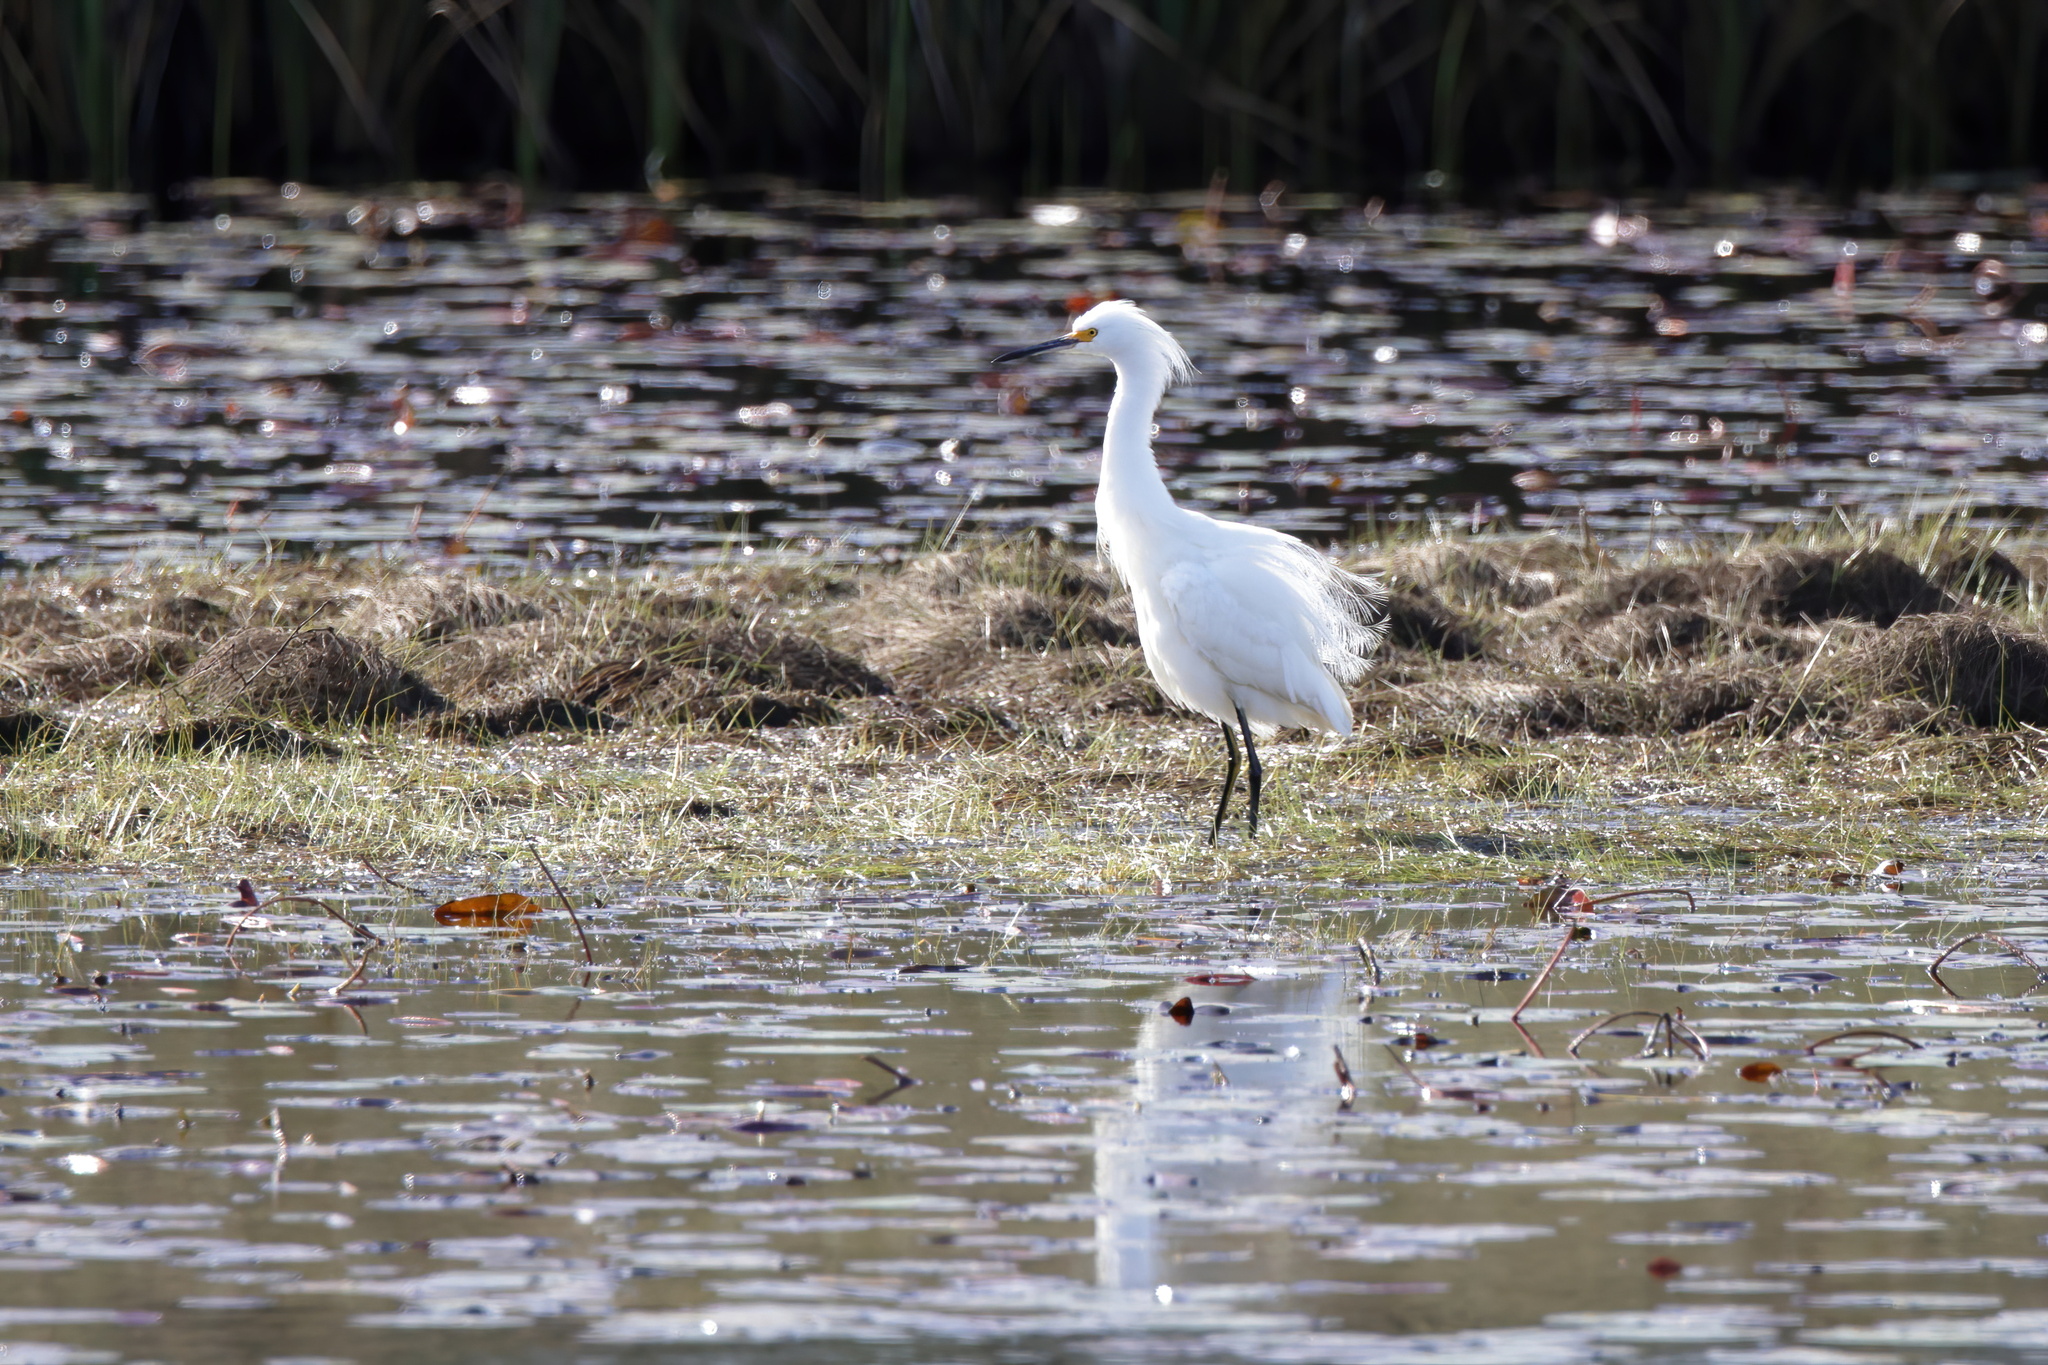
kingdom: Animalia
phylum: Chordata
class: Aves
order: Pelecaniformes
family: Ardeidae
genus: Egretta
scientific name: Egretta thula
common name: Snowy egret
